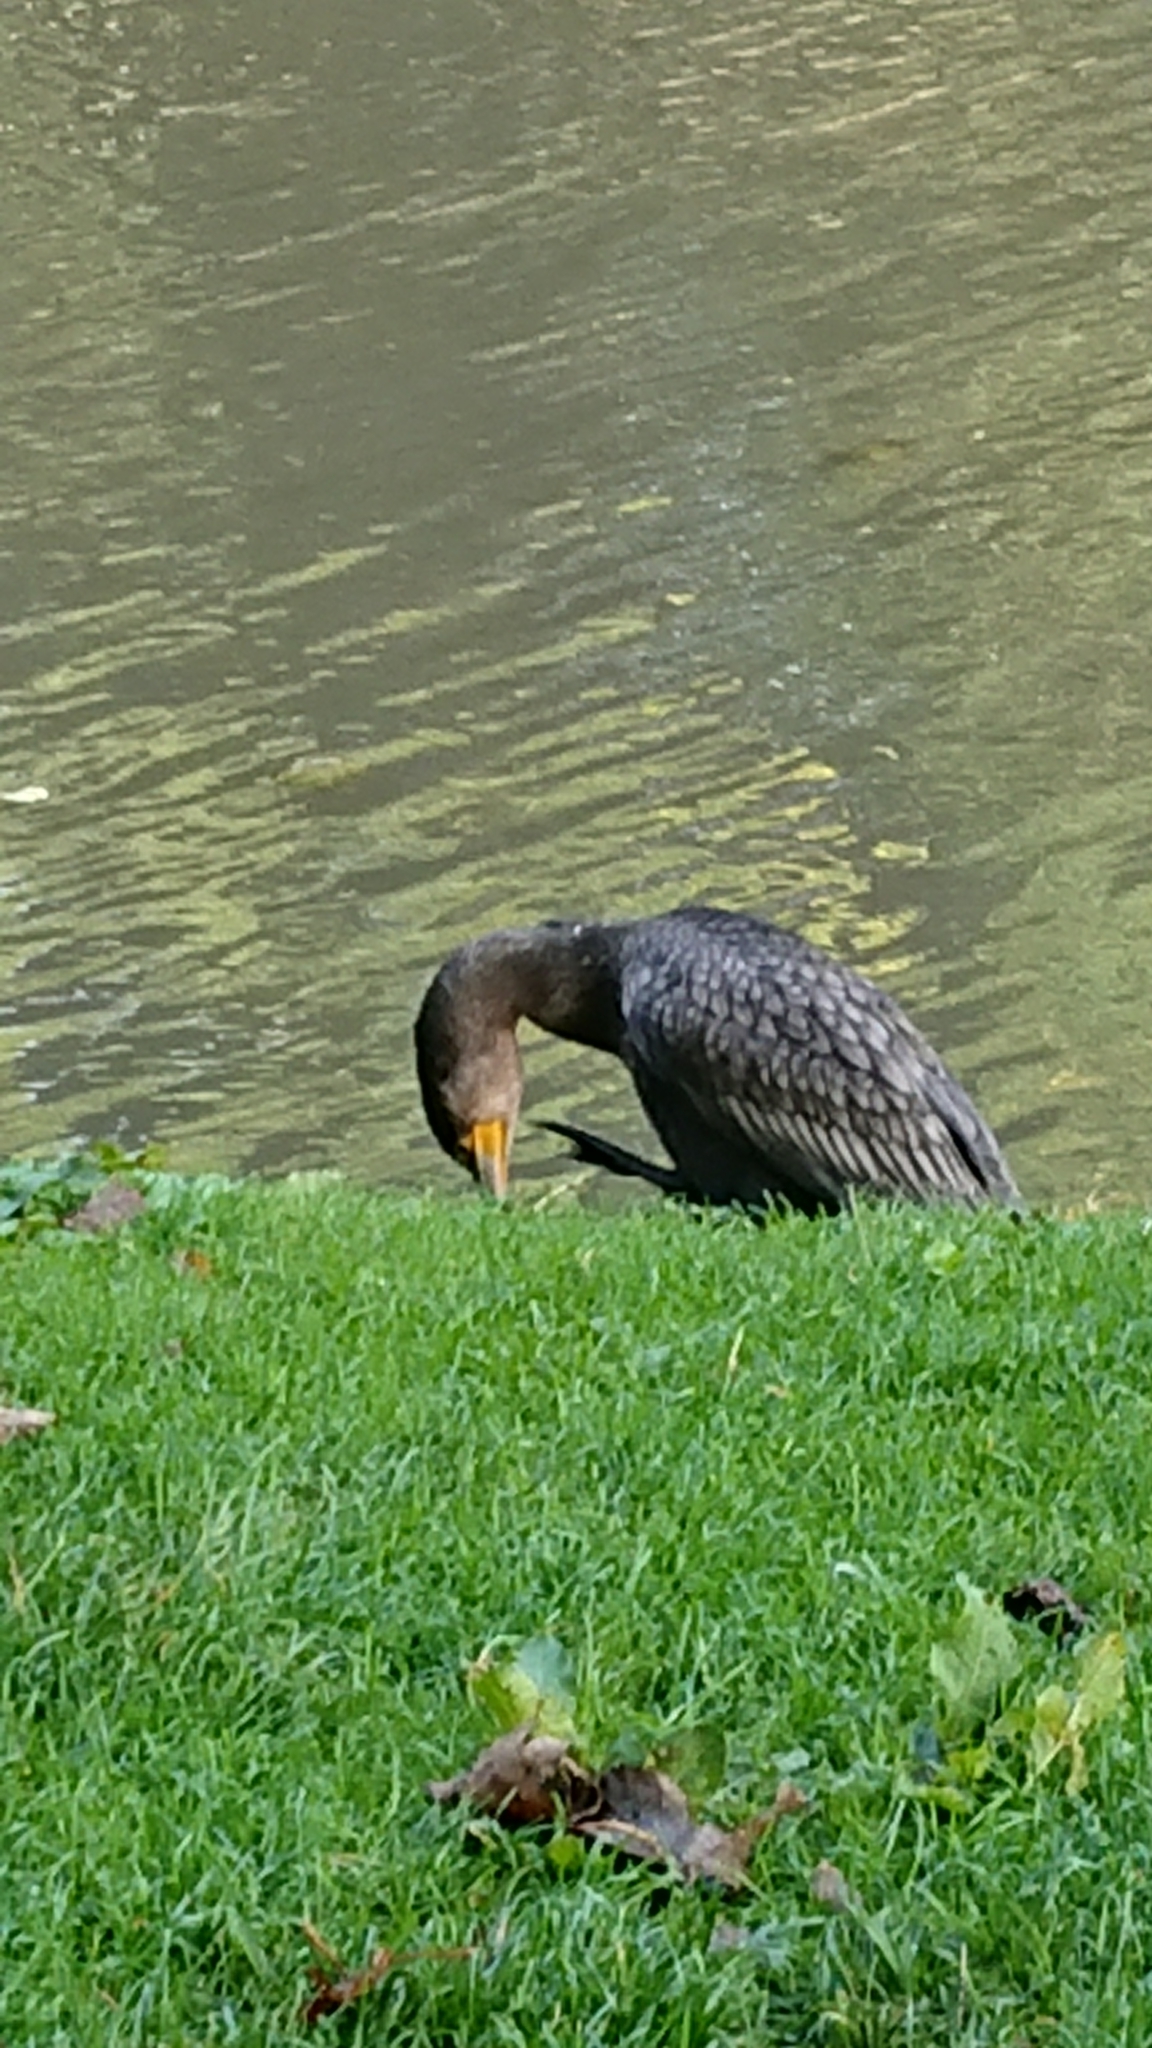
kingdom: Animalia
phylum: Chordata
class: Aves
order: Suliformes
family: Phalacrocoracidae
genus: Phalacrocorax
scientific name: Phalacrocorax carbo
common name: Great cormorant
